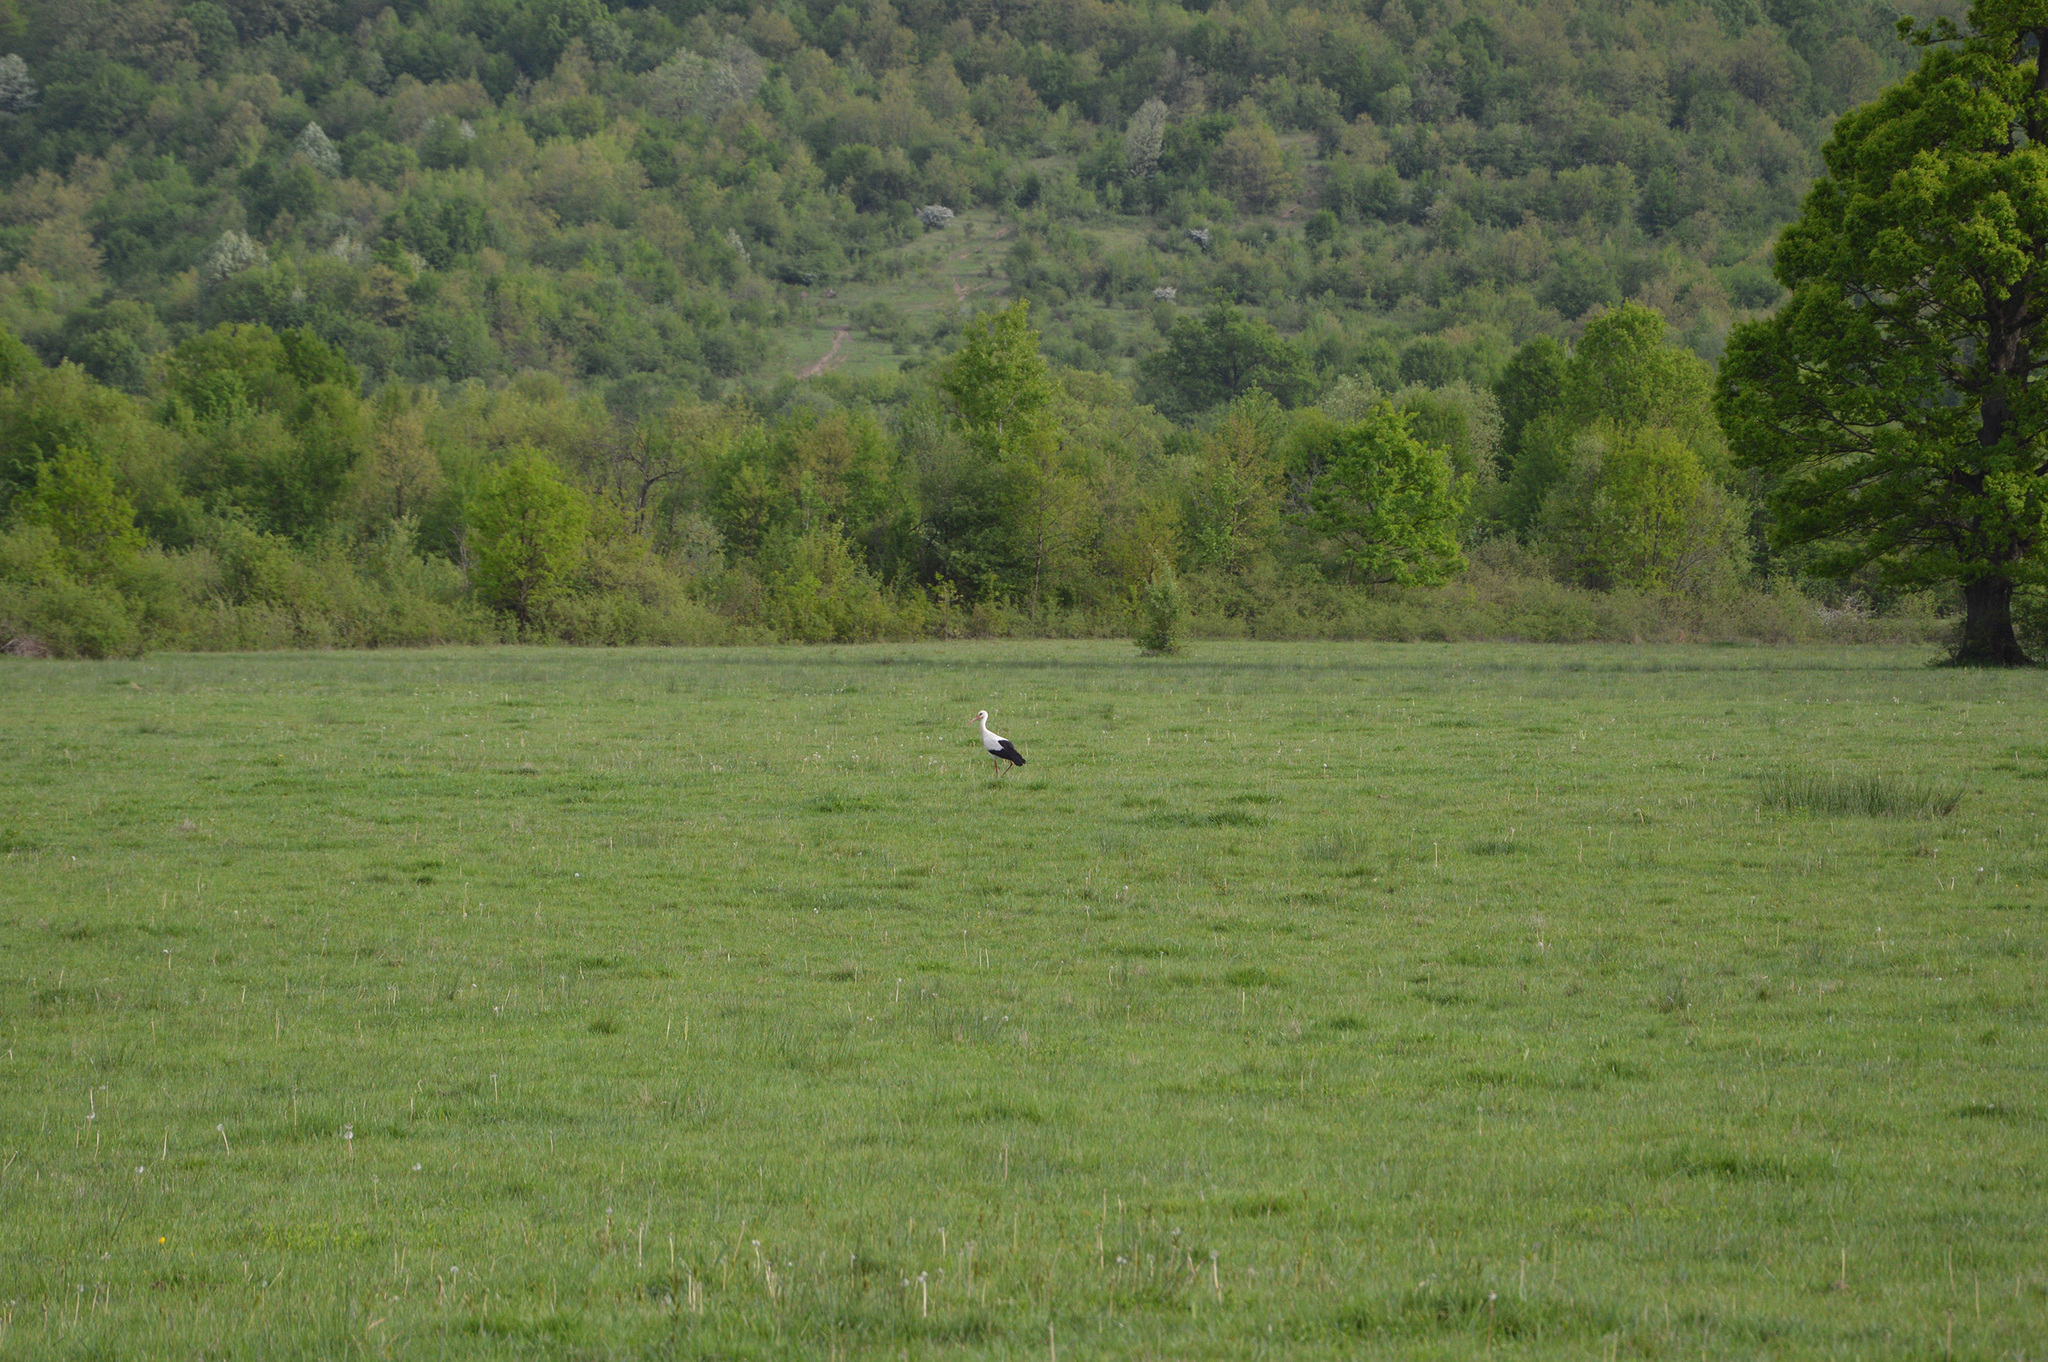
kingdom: Animalia
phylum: Chordata
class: Aves
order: Ciconiiformes
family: Ciconiidae
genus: Ciconia
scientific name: Ciconia ciconia
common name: White stork
